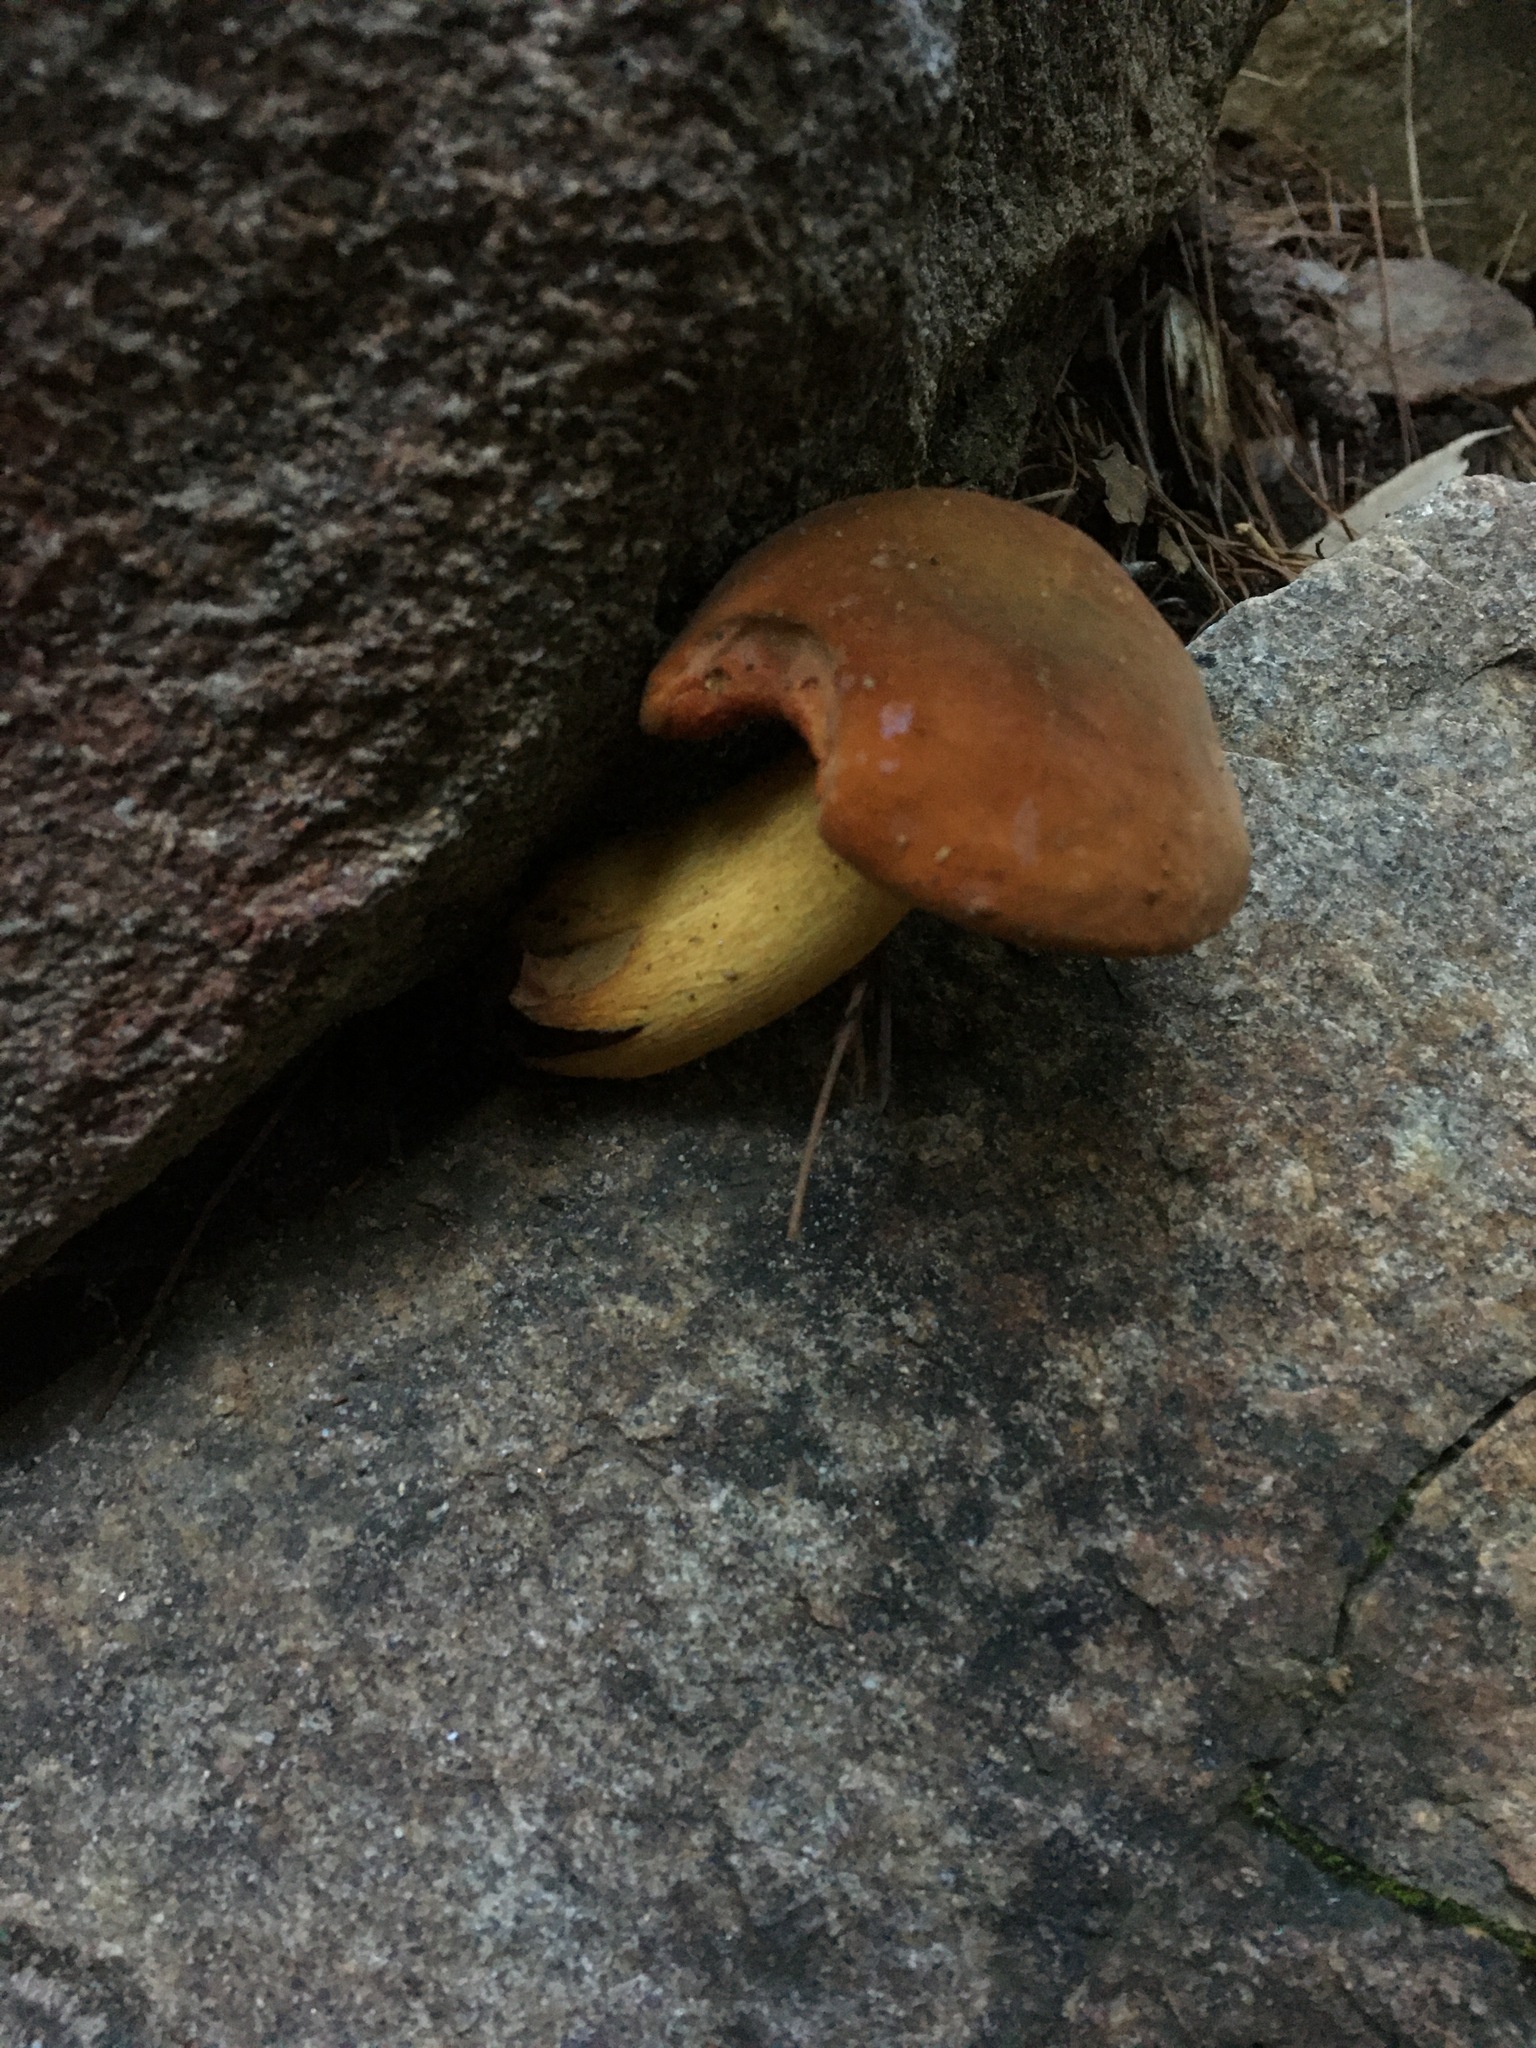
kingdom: Fungi
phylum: Basidiomycota
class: Agaricomycetes
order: Boletales
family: Boletaceae
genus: Boletus
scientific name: Boletus vermiculosoides
